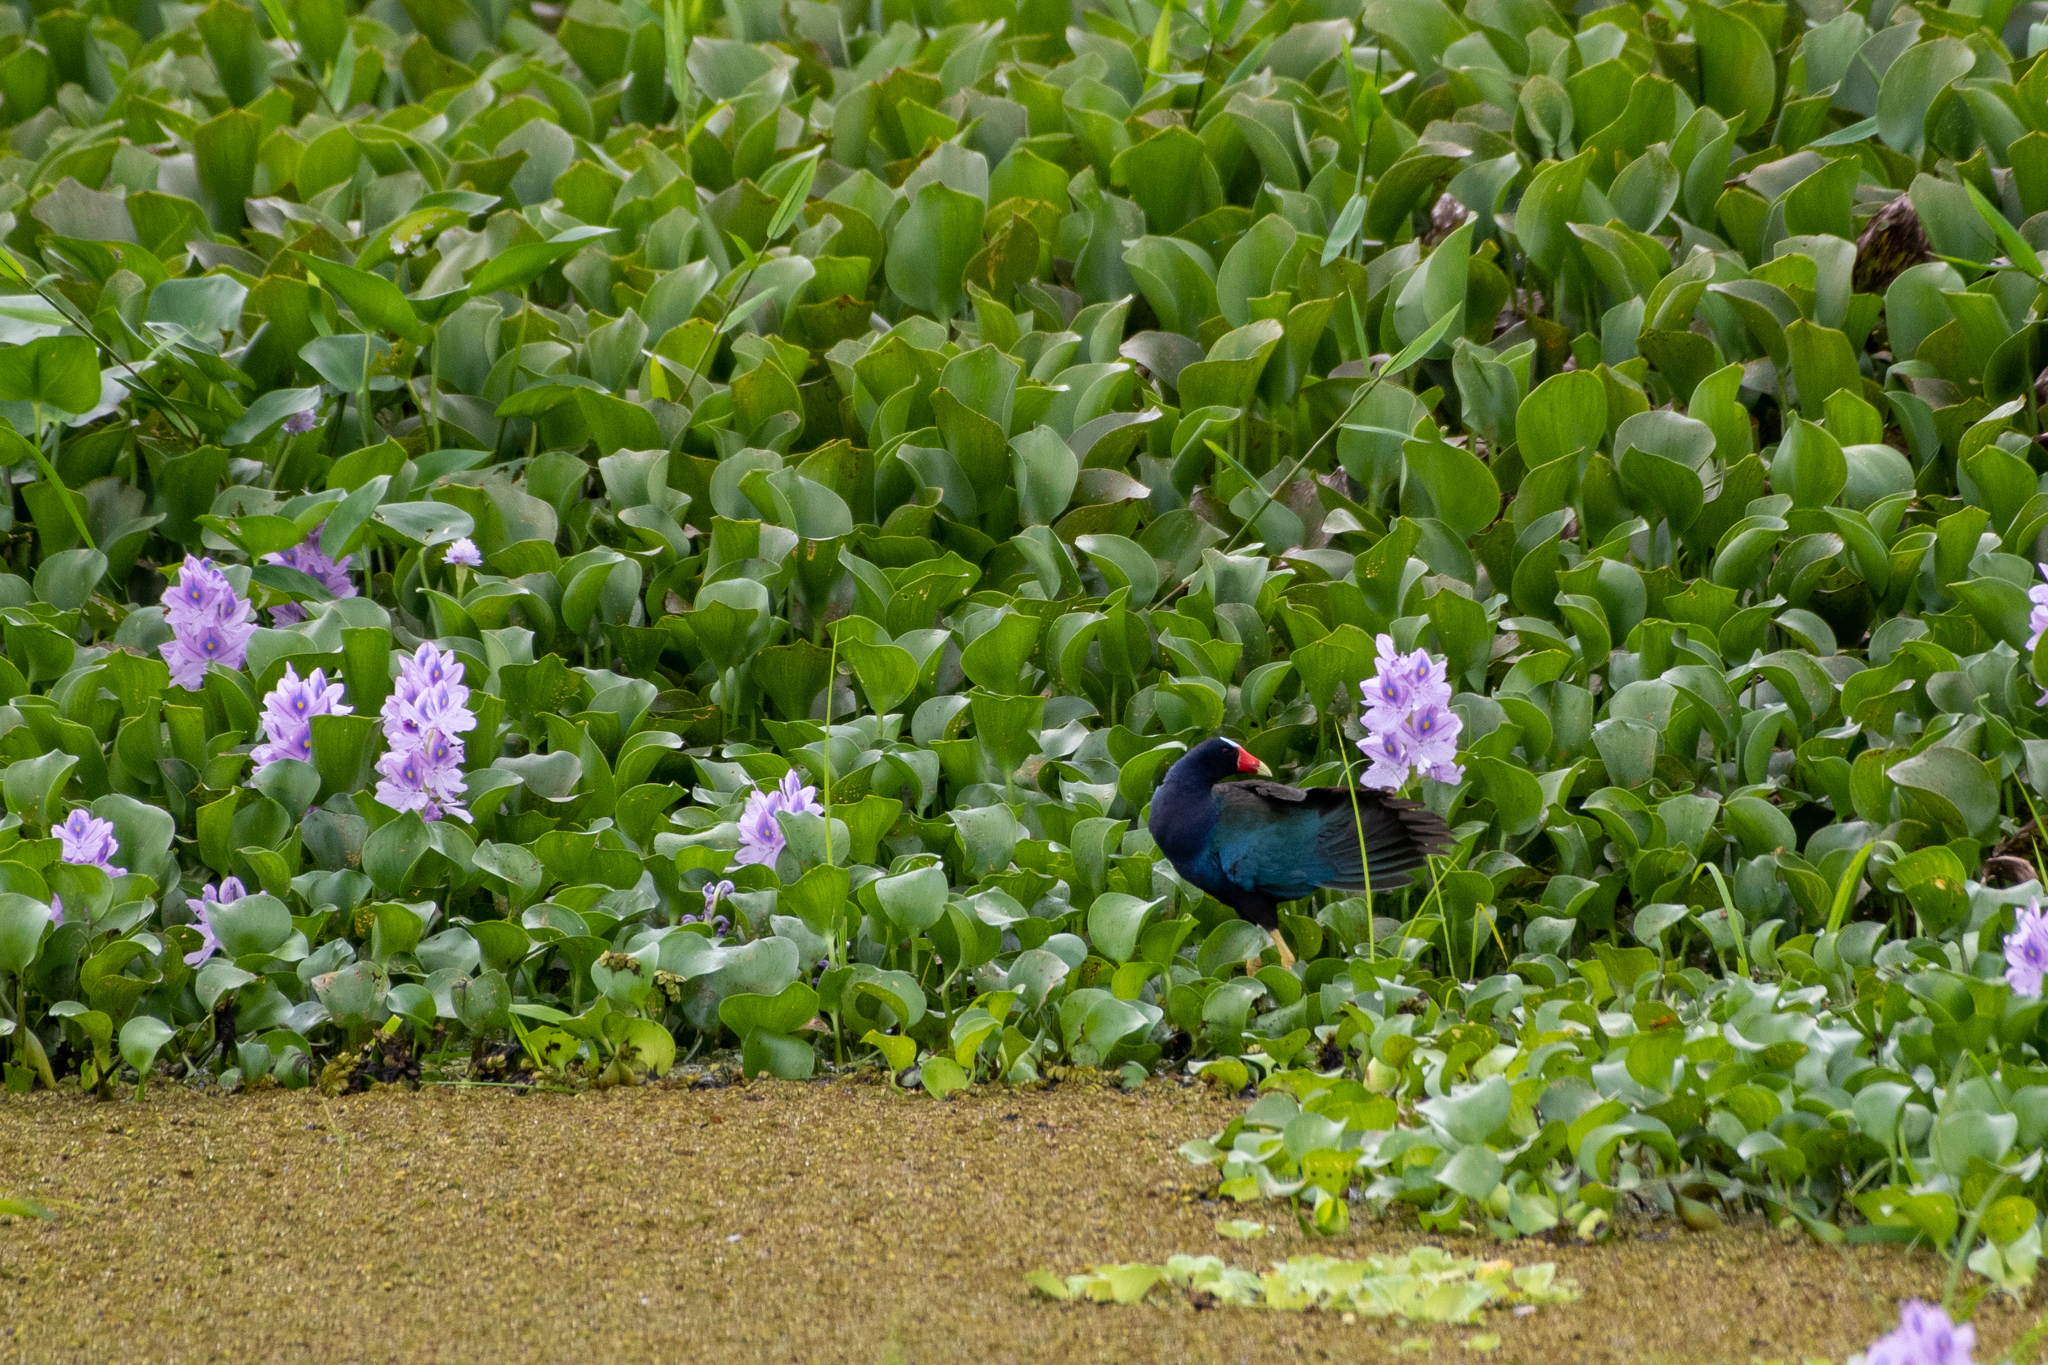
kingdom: Animalia
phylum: Chordata
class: Aves
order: Gruiformes
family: Rallidae
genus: Porphyrio
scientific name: Porphyrio martinica
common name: Purple gallinule
